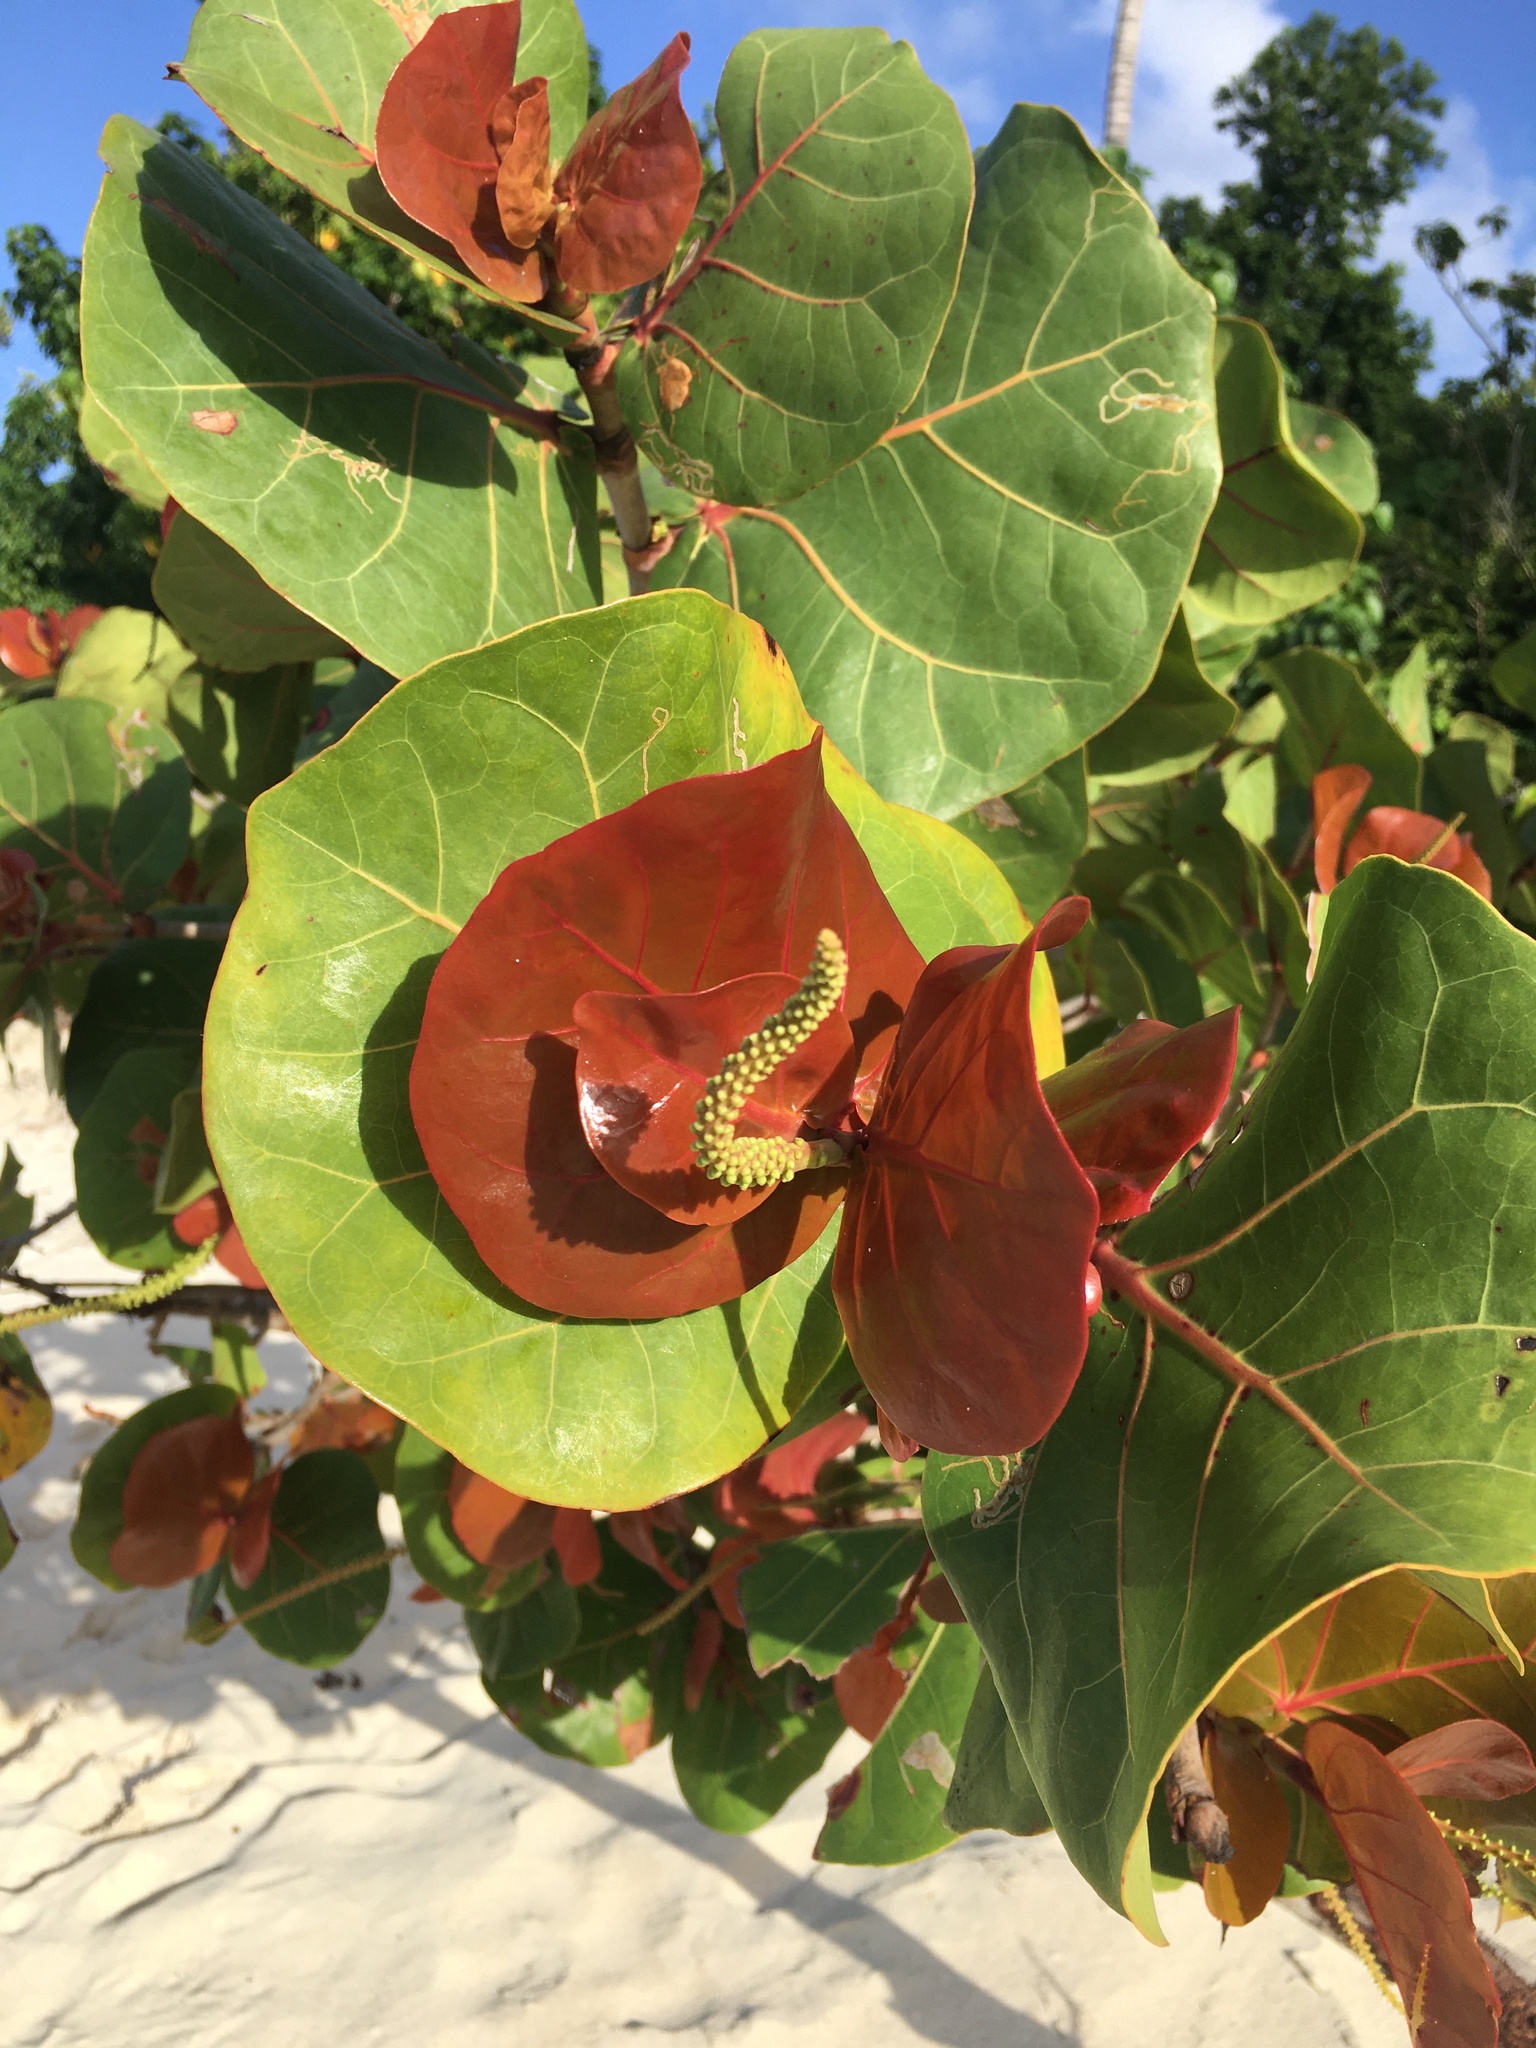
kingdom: Plantae
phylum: Tracheophyta
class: Magnoliopsida
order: Caryophyllales
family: Polygonaceae
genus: Coccoloba
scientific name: Coccoloba uvifera
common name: Seagrape
